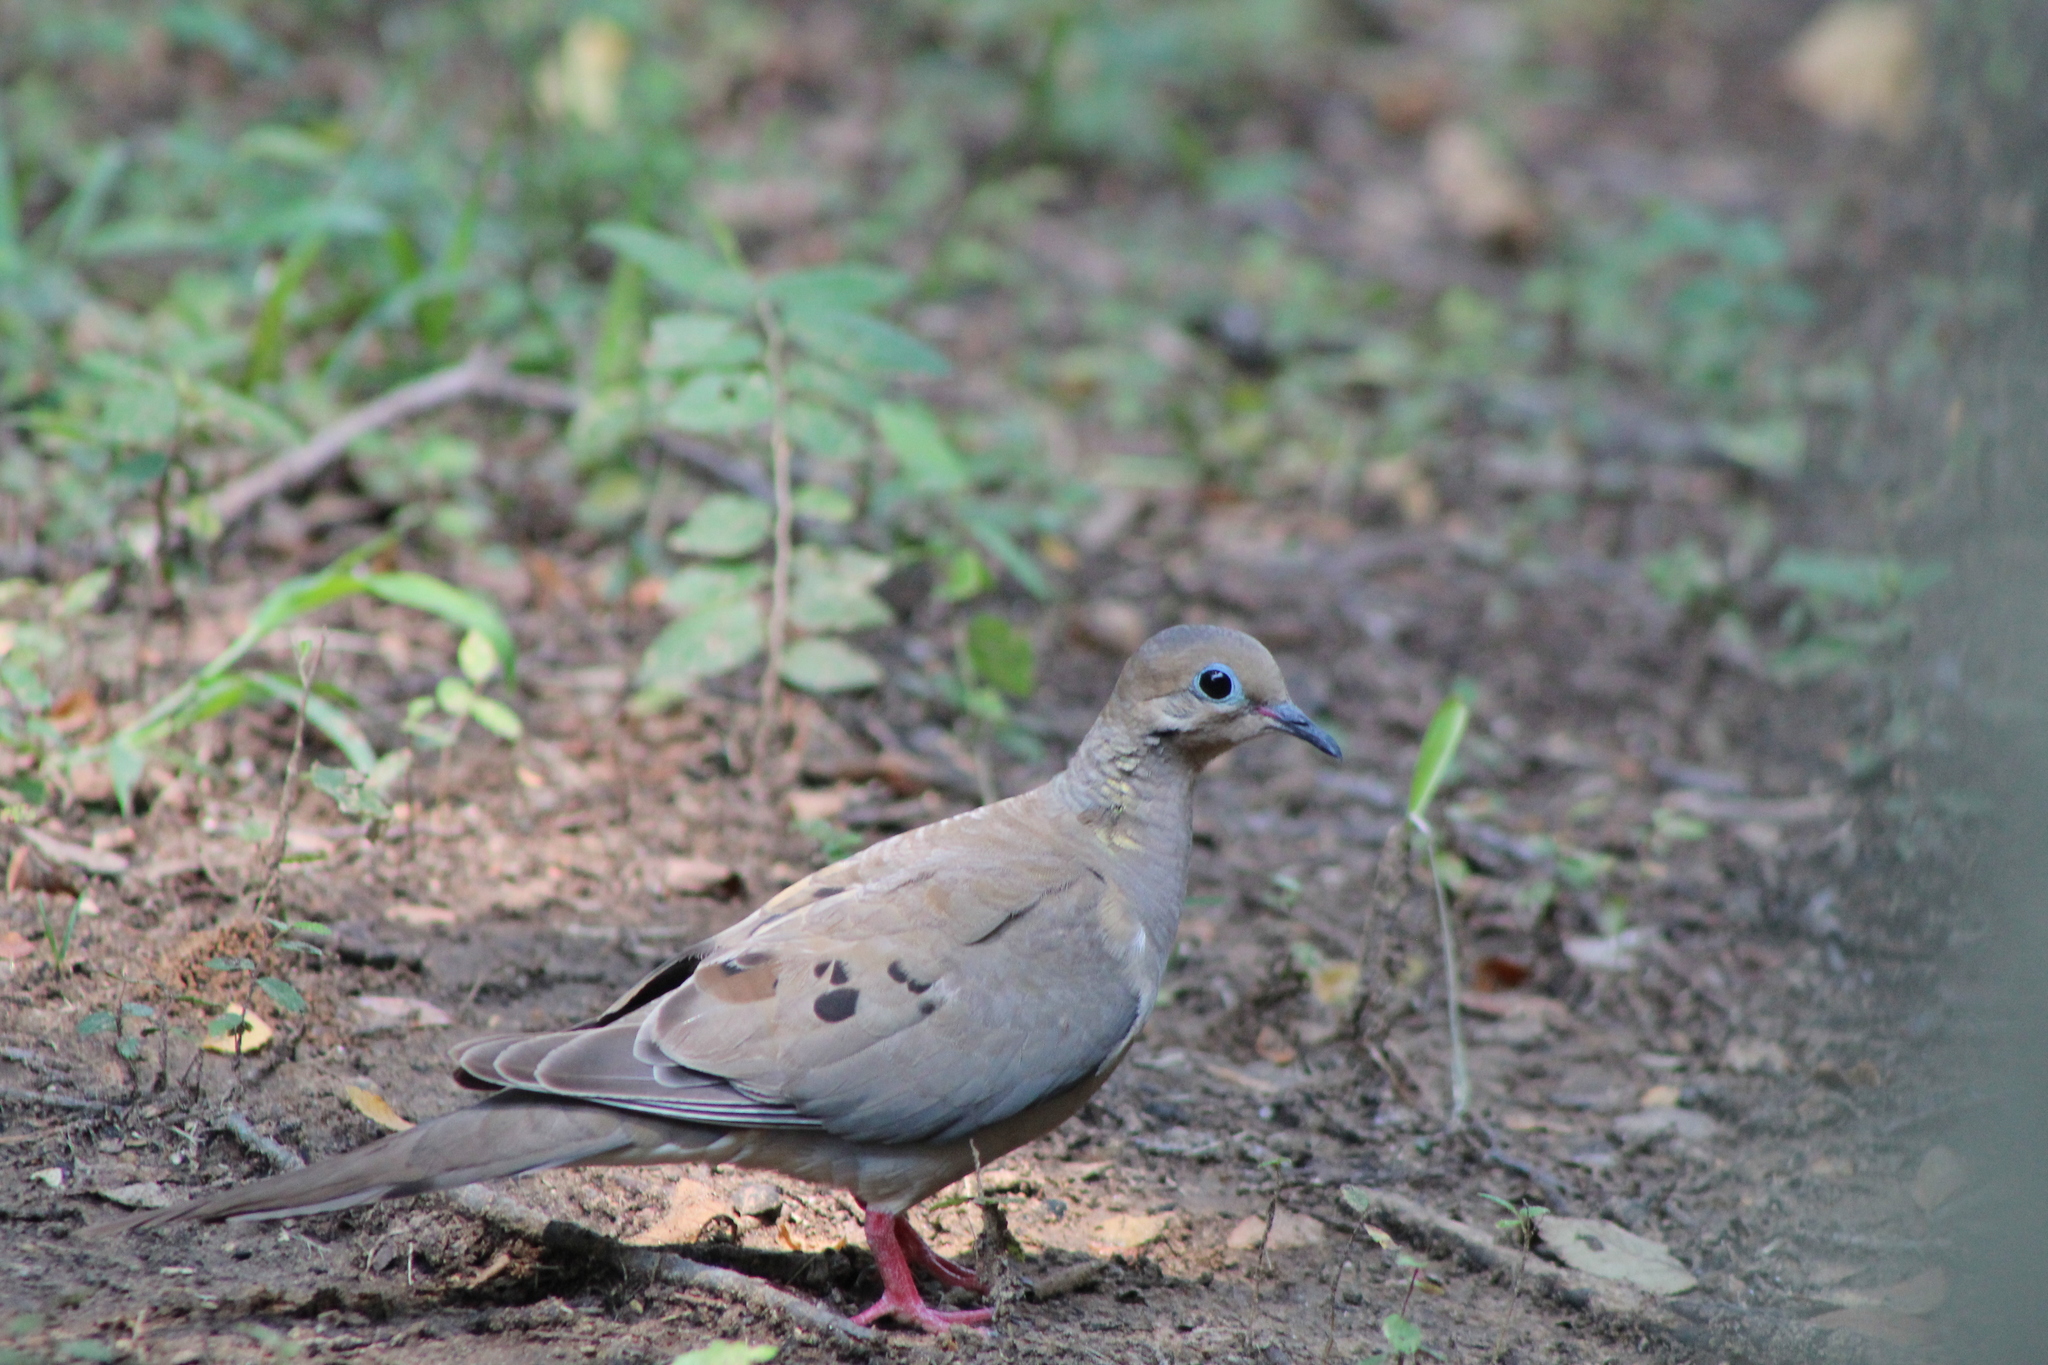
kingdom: Animalia
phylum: Chordata
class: Aves
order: Columbiformes
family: Columbidae
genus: Zenaida
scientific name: Zenaida macroura
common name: Mourning dove
